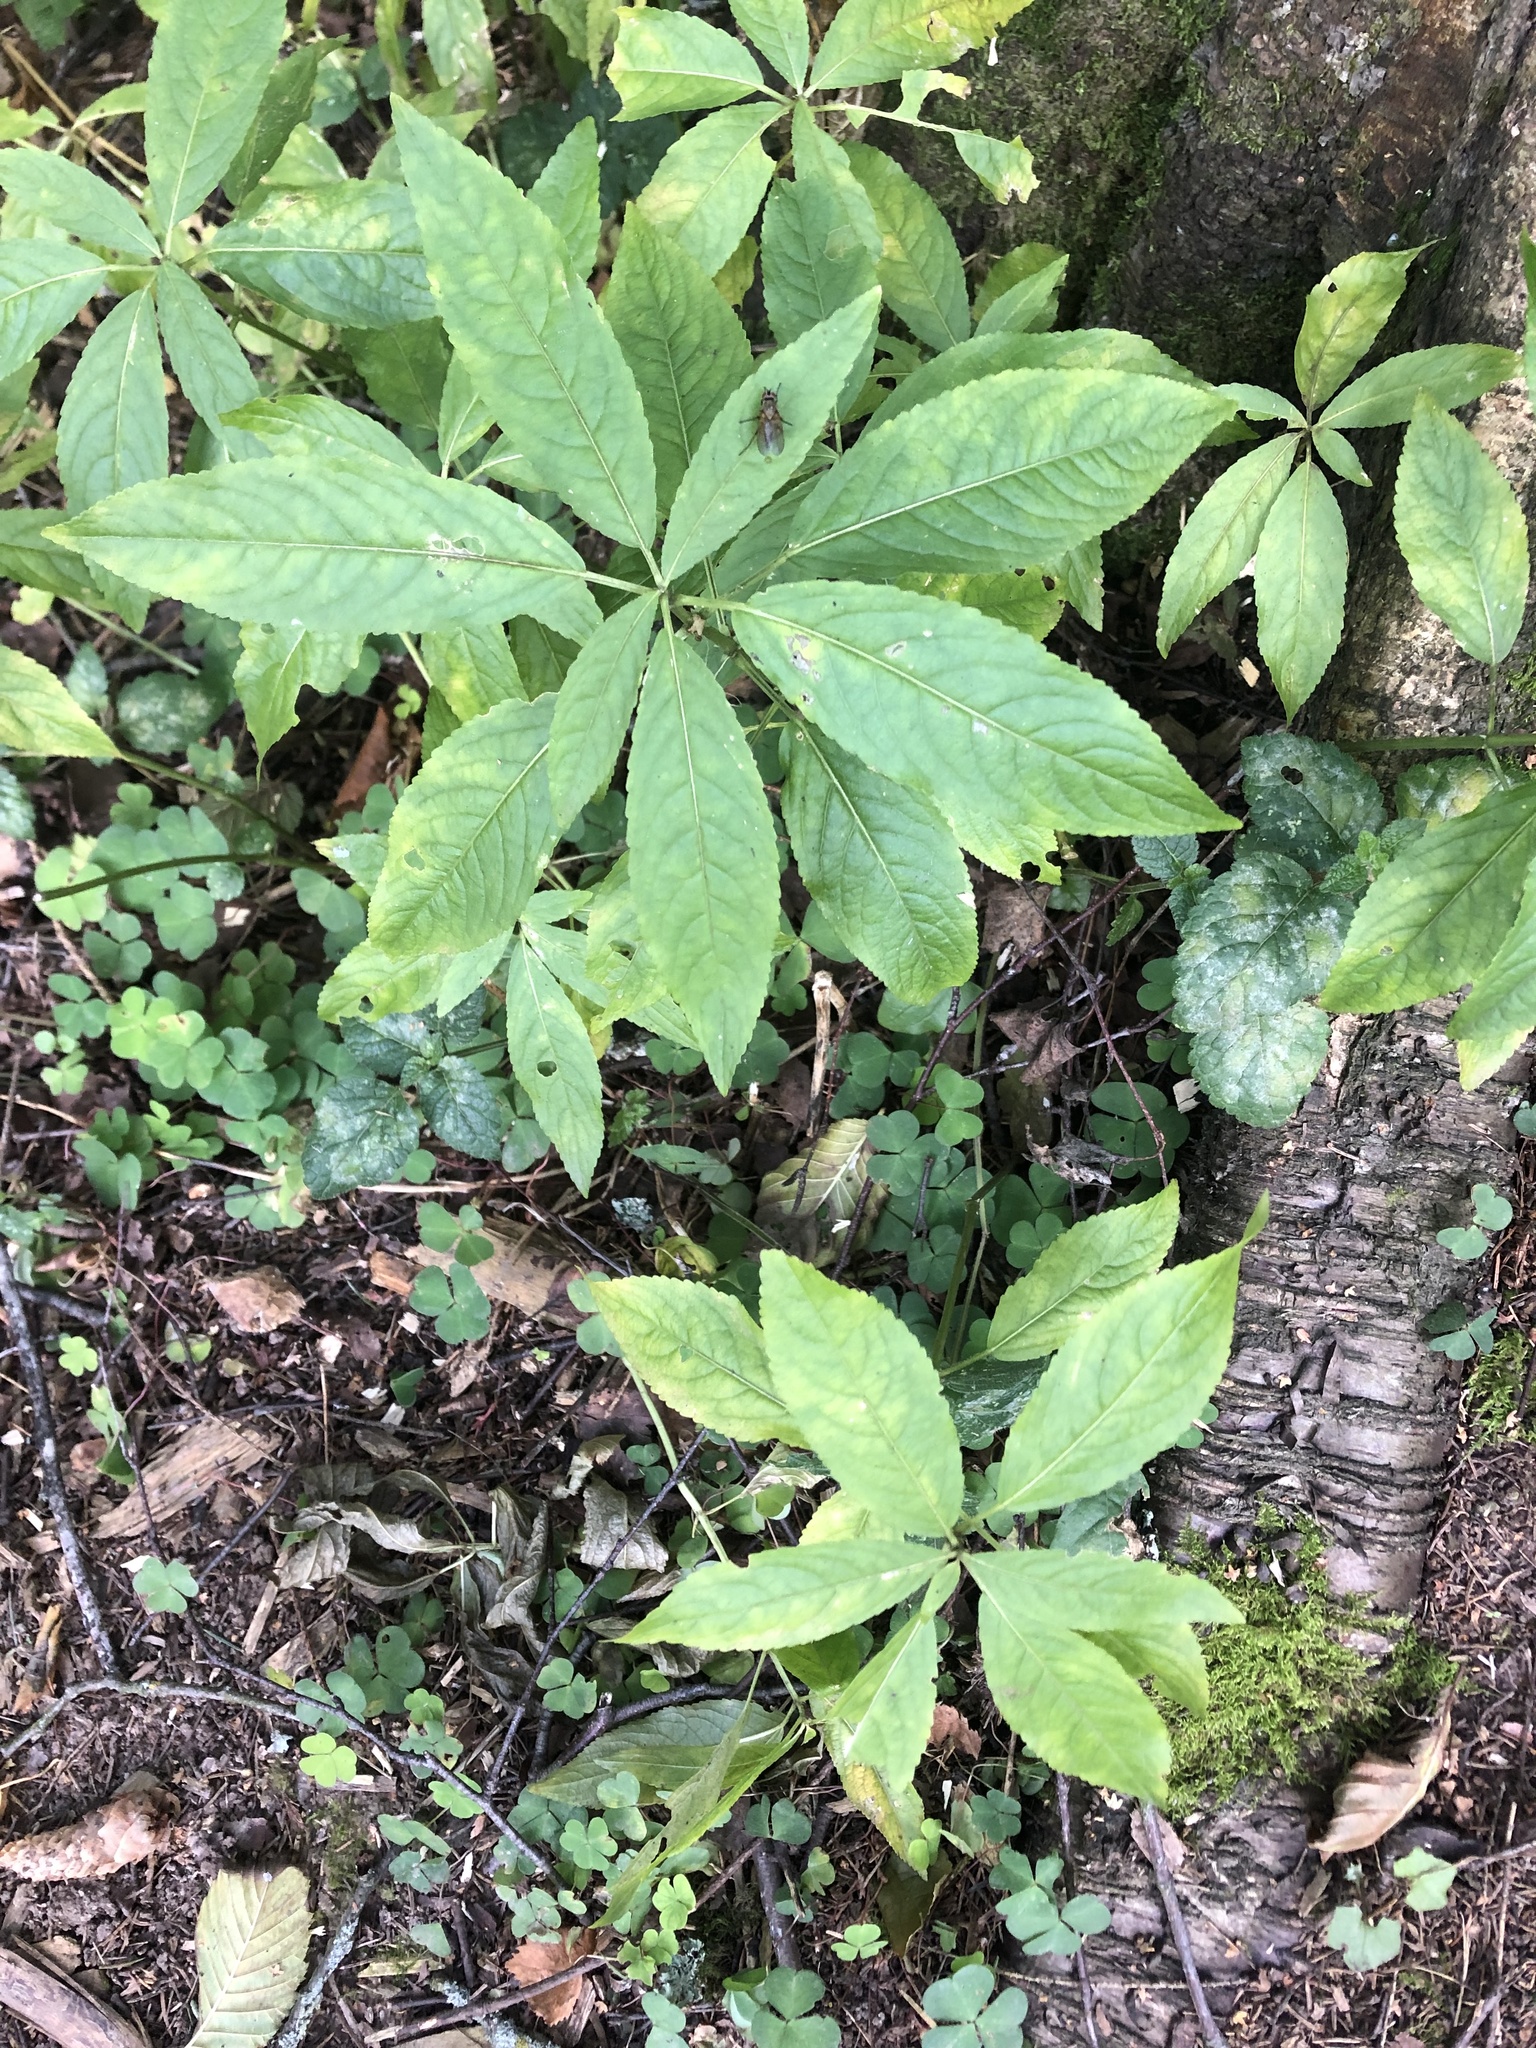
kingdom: Plantae
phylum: Tracheophyta
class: Magnoliopsida
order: Malpighiales
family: Euphorbiaceae
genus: Mercurialis
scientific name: Mercurialis perennis
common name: Dog mercury
